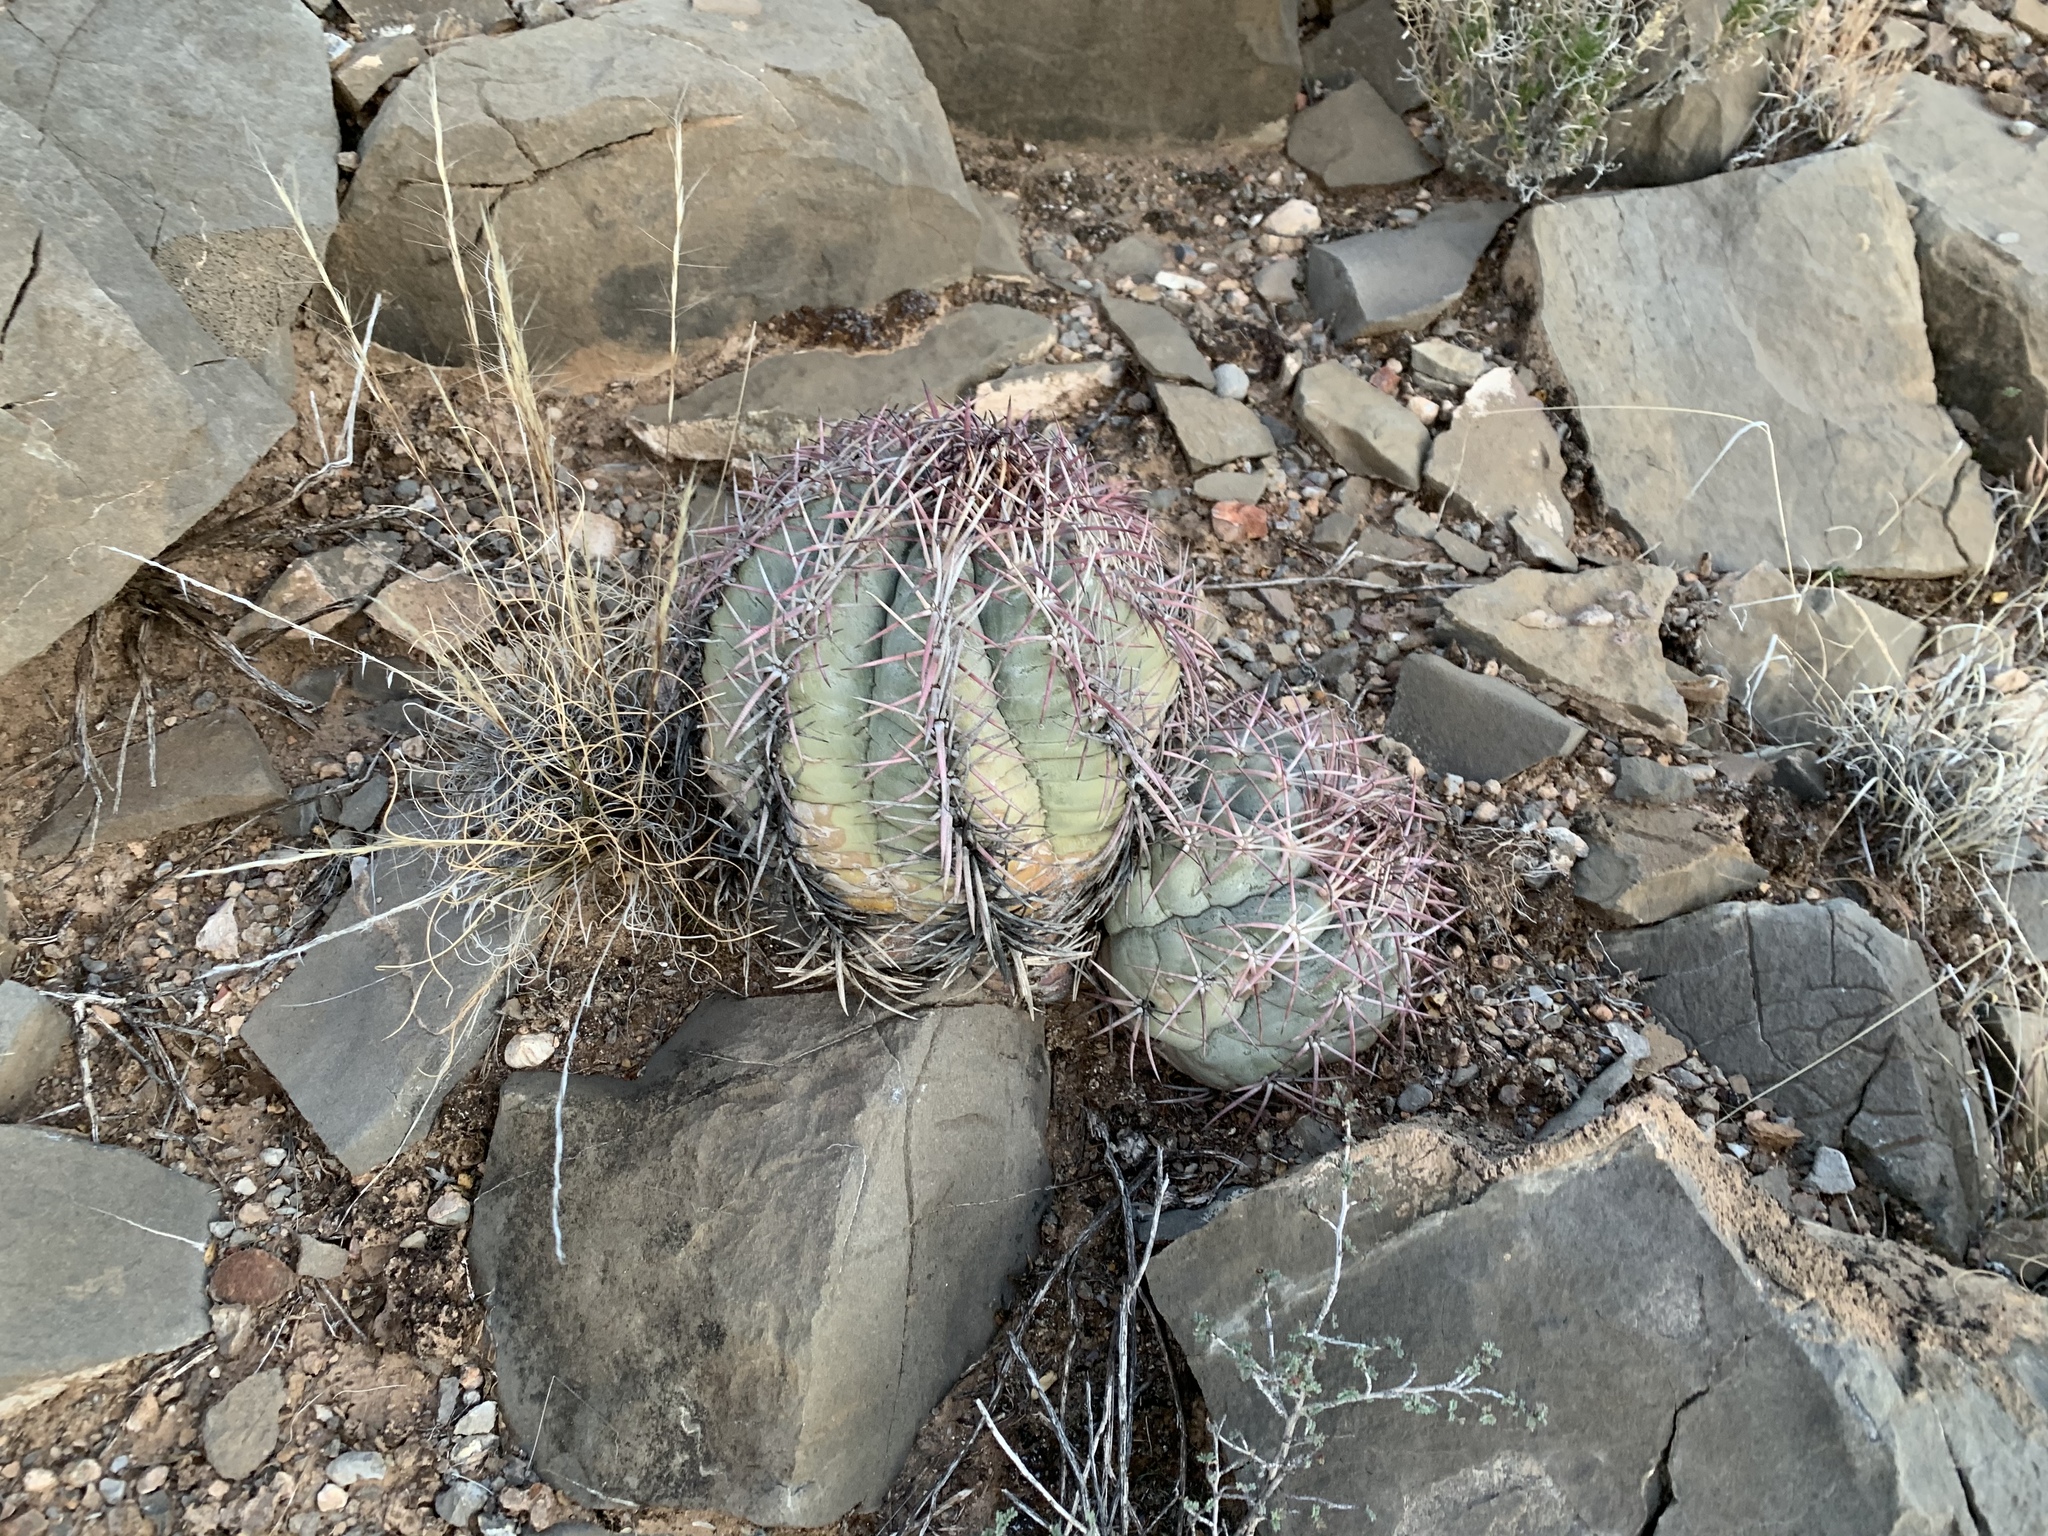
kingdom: Plantae
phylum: Tracheophyta
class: Magnoliopsida
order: Caryophyllales
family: Cactaceae
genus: Echinocactus
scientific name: Echinocactus horizonthalonius
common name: Devilshead
